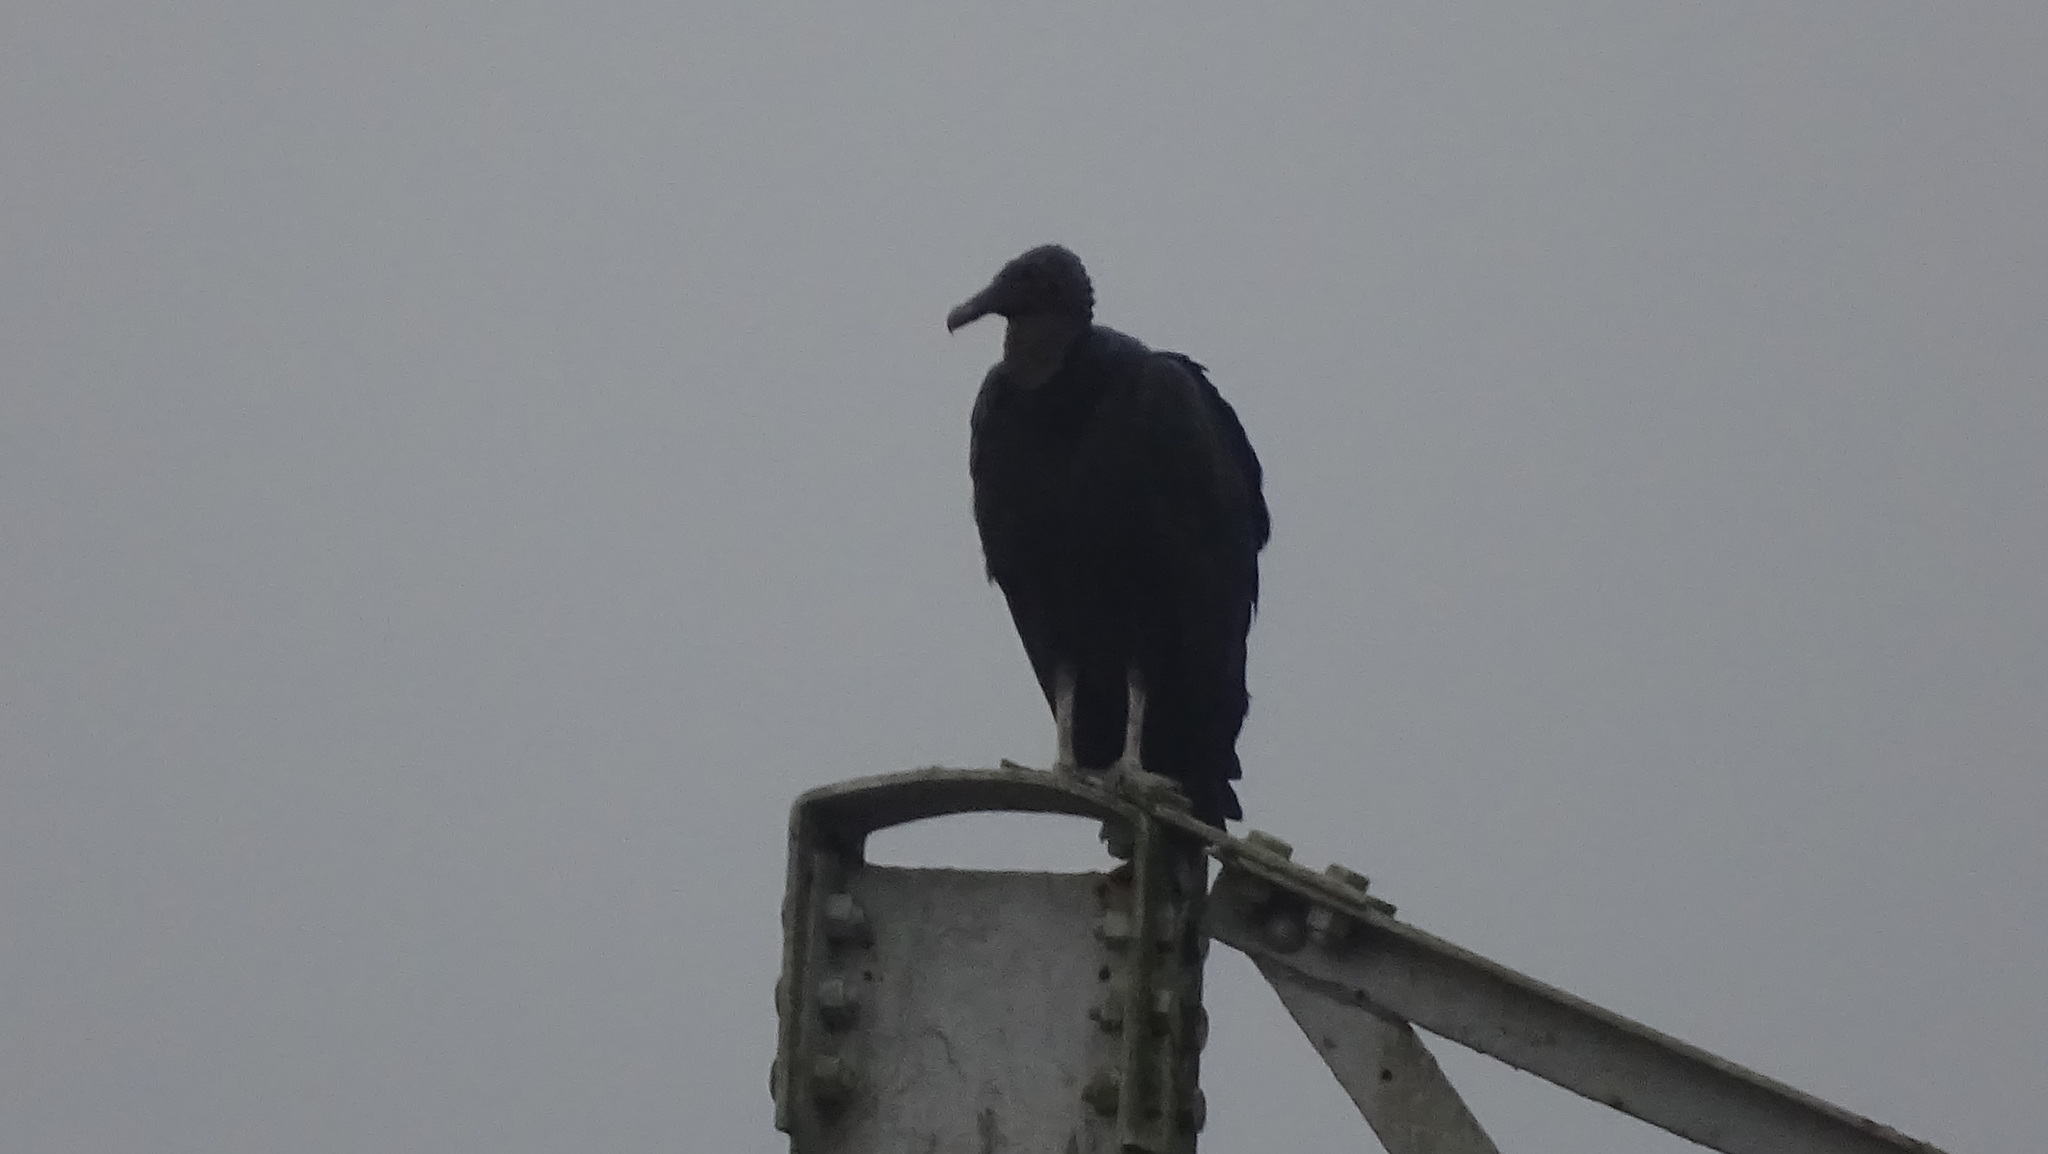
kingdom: Animalia
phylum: Chordata
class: Aves
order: Accipitriformes
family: Cathartidae
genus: Coragyps
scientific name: Coragyps atratus
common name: Black vulture
